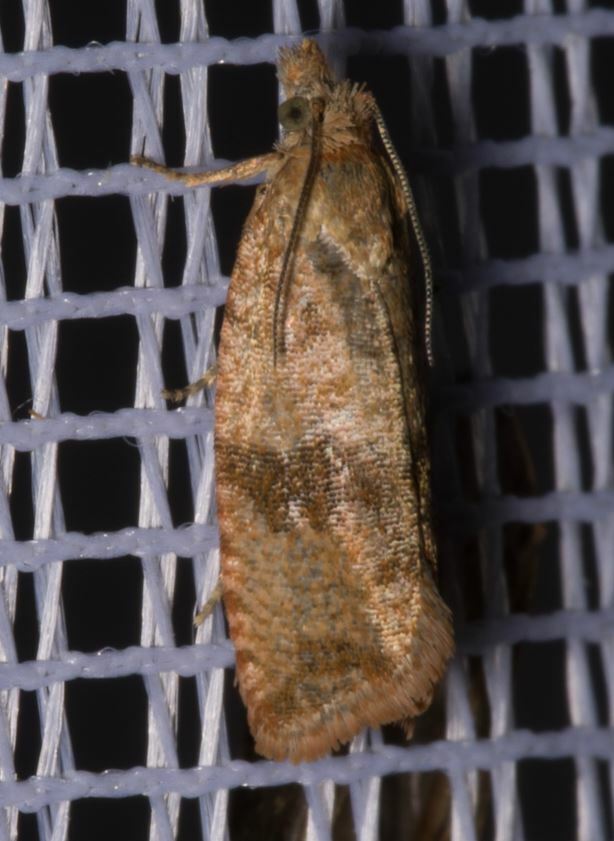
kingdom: Animalia
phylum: Arthropoda
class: Insecta
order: Lepidoptera
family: Tortricidae
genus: Celypha
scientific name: Celypha striana
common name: Barred marble
